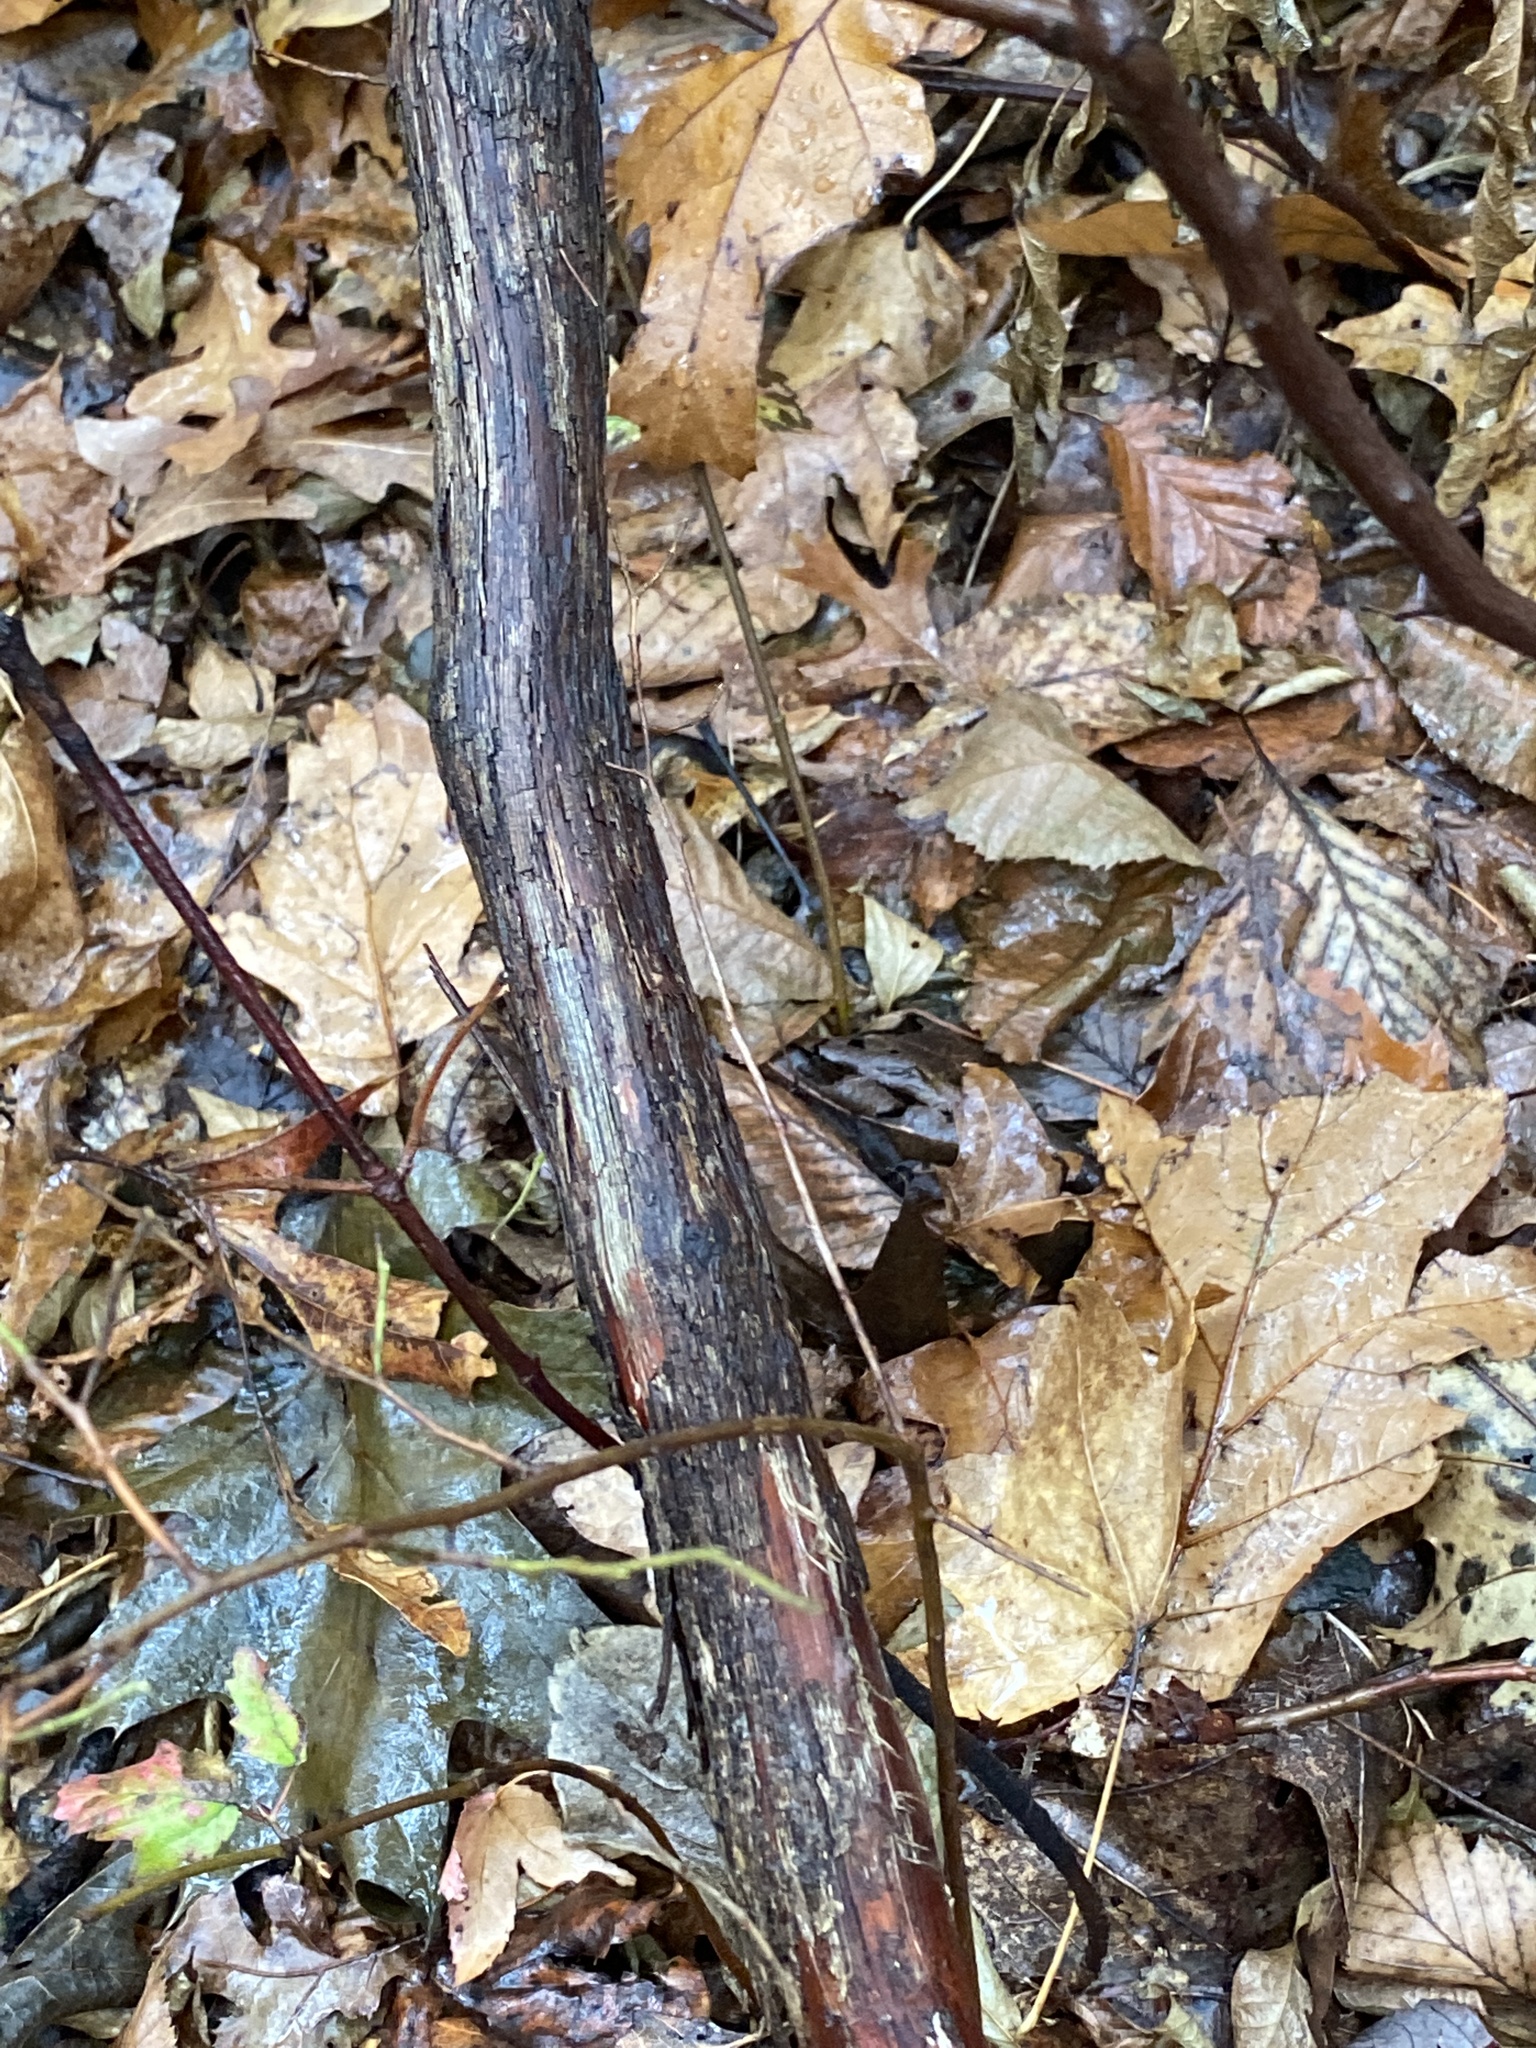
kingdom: Plantae
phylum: Tracheophyta
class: Magnoliopsida
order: Vitales
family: Vitaceae
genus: Vitis
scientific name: Vitis
